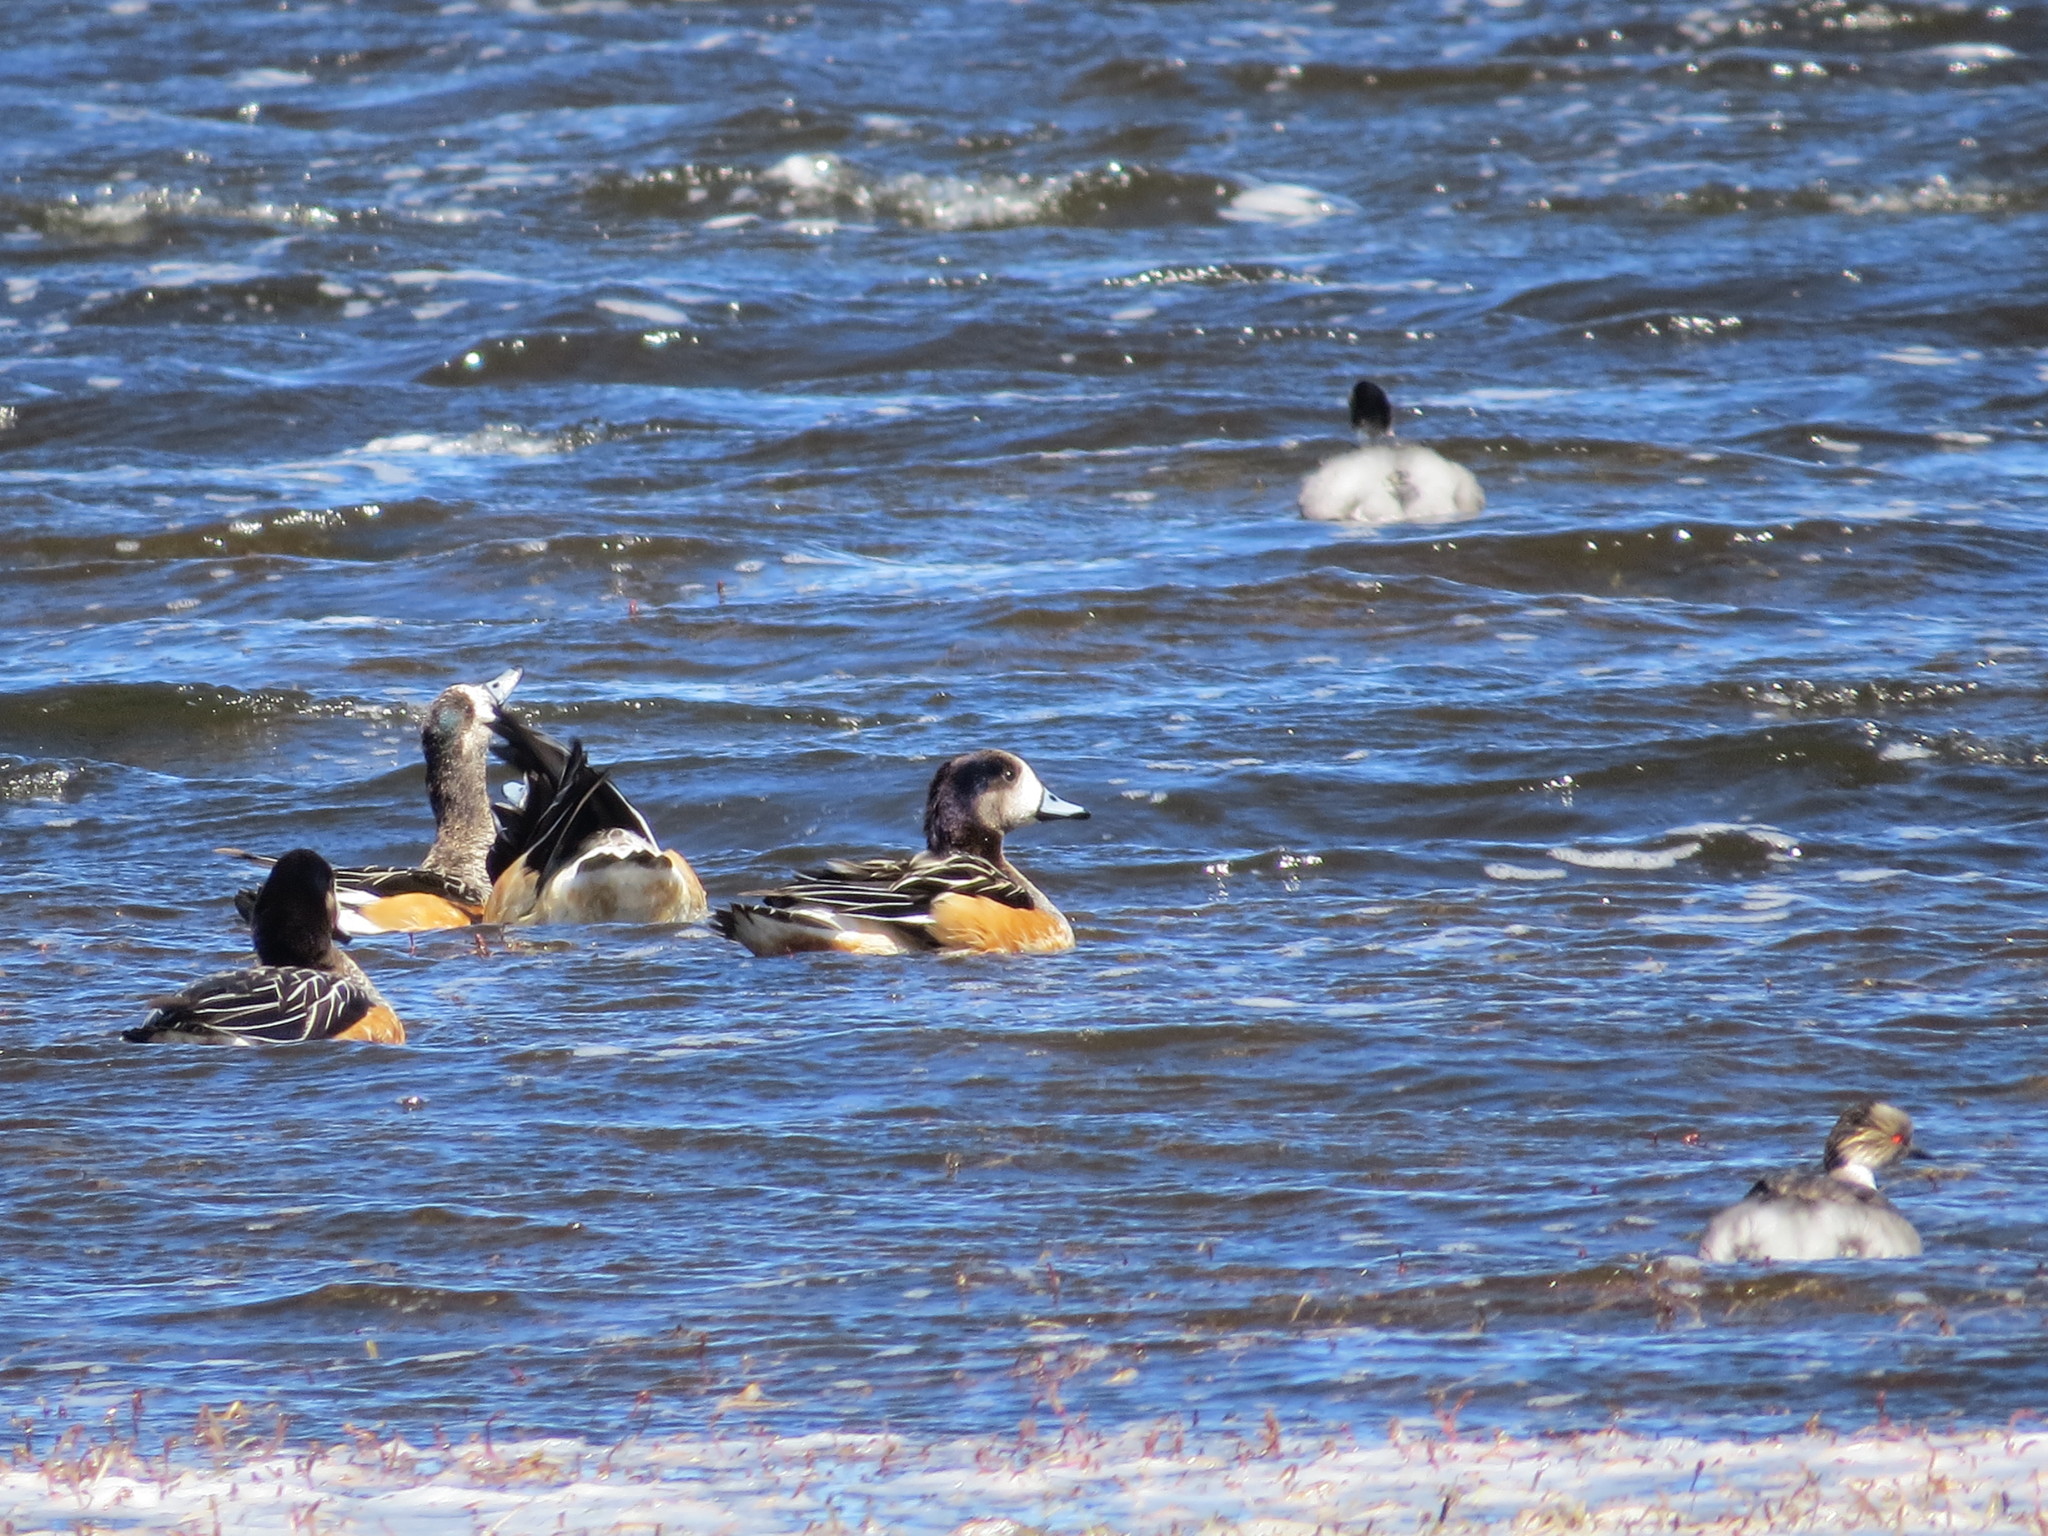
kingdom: Animalia
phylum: Chordata
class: Aves
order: Anseriformes
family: Anatidae
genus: Mareca
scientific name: Mareca sibilatrix
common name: Chiloe wigeon
